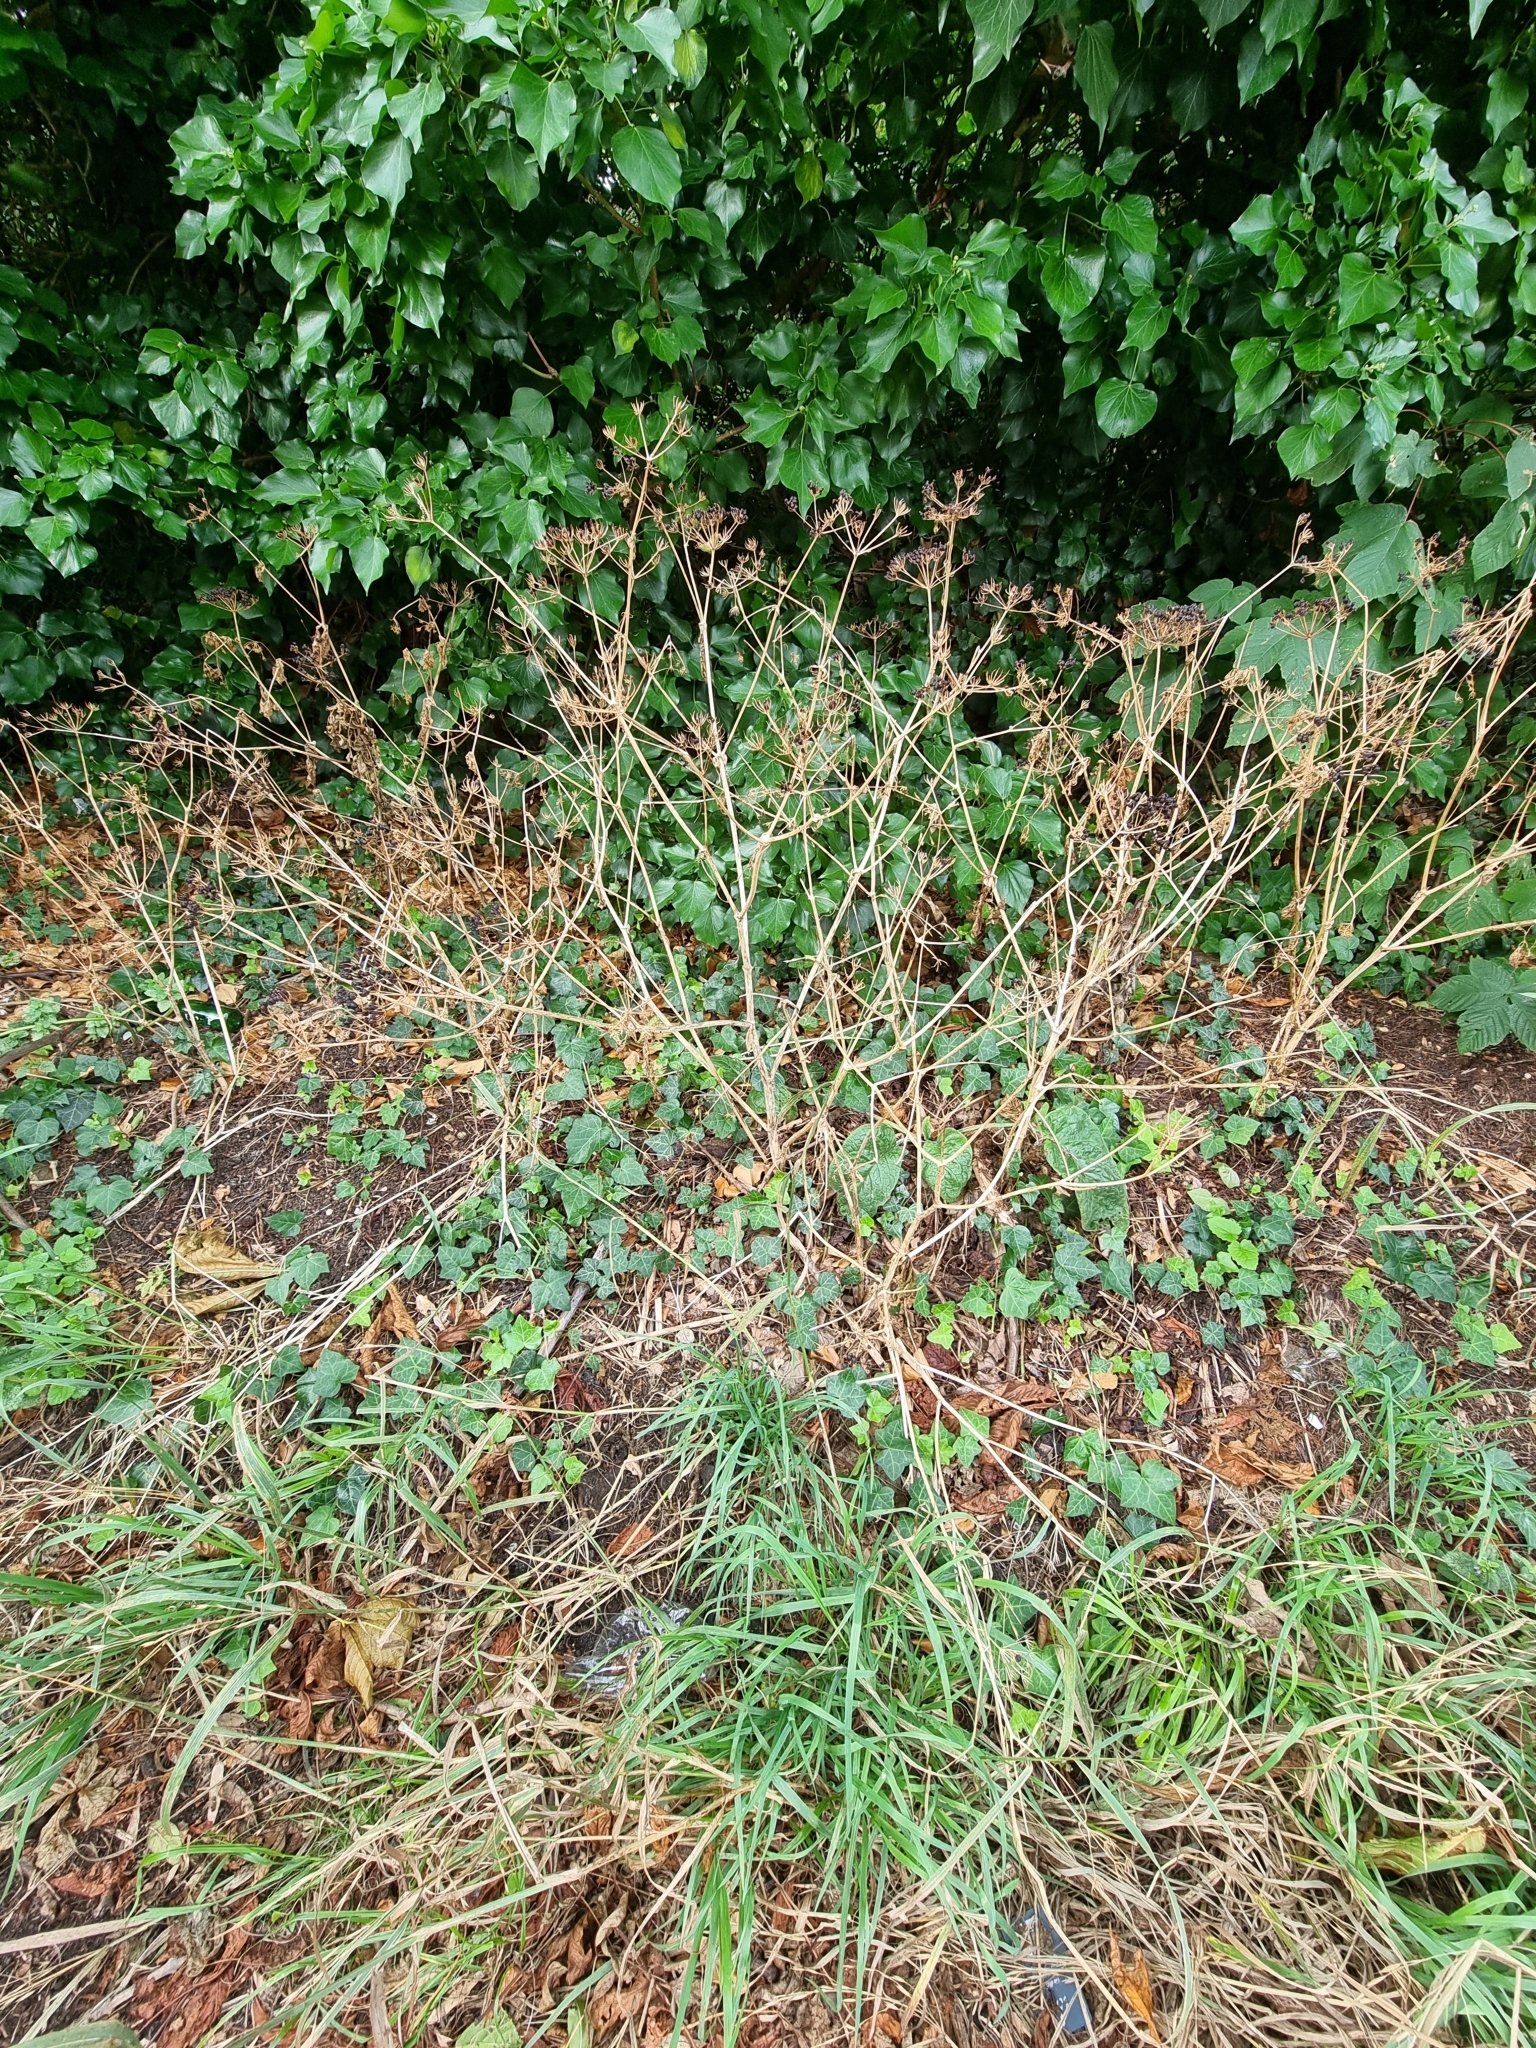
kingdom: Plantae
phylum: Tracheophyta
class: Magnoliopsida
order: Apiales
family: Apiaceae
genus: Smyrnium
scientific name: Smyrnium olusatrum
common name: Alexanders
